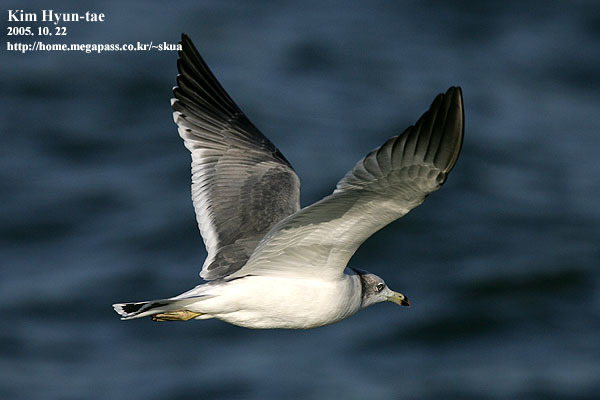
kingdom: Animalia
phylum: Chordata
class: Aves
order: Charadriiformes
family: Laridae
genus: Larus
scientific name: Larus crassirostris
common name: Black-tailed gull
